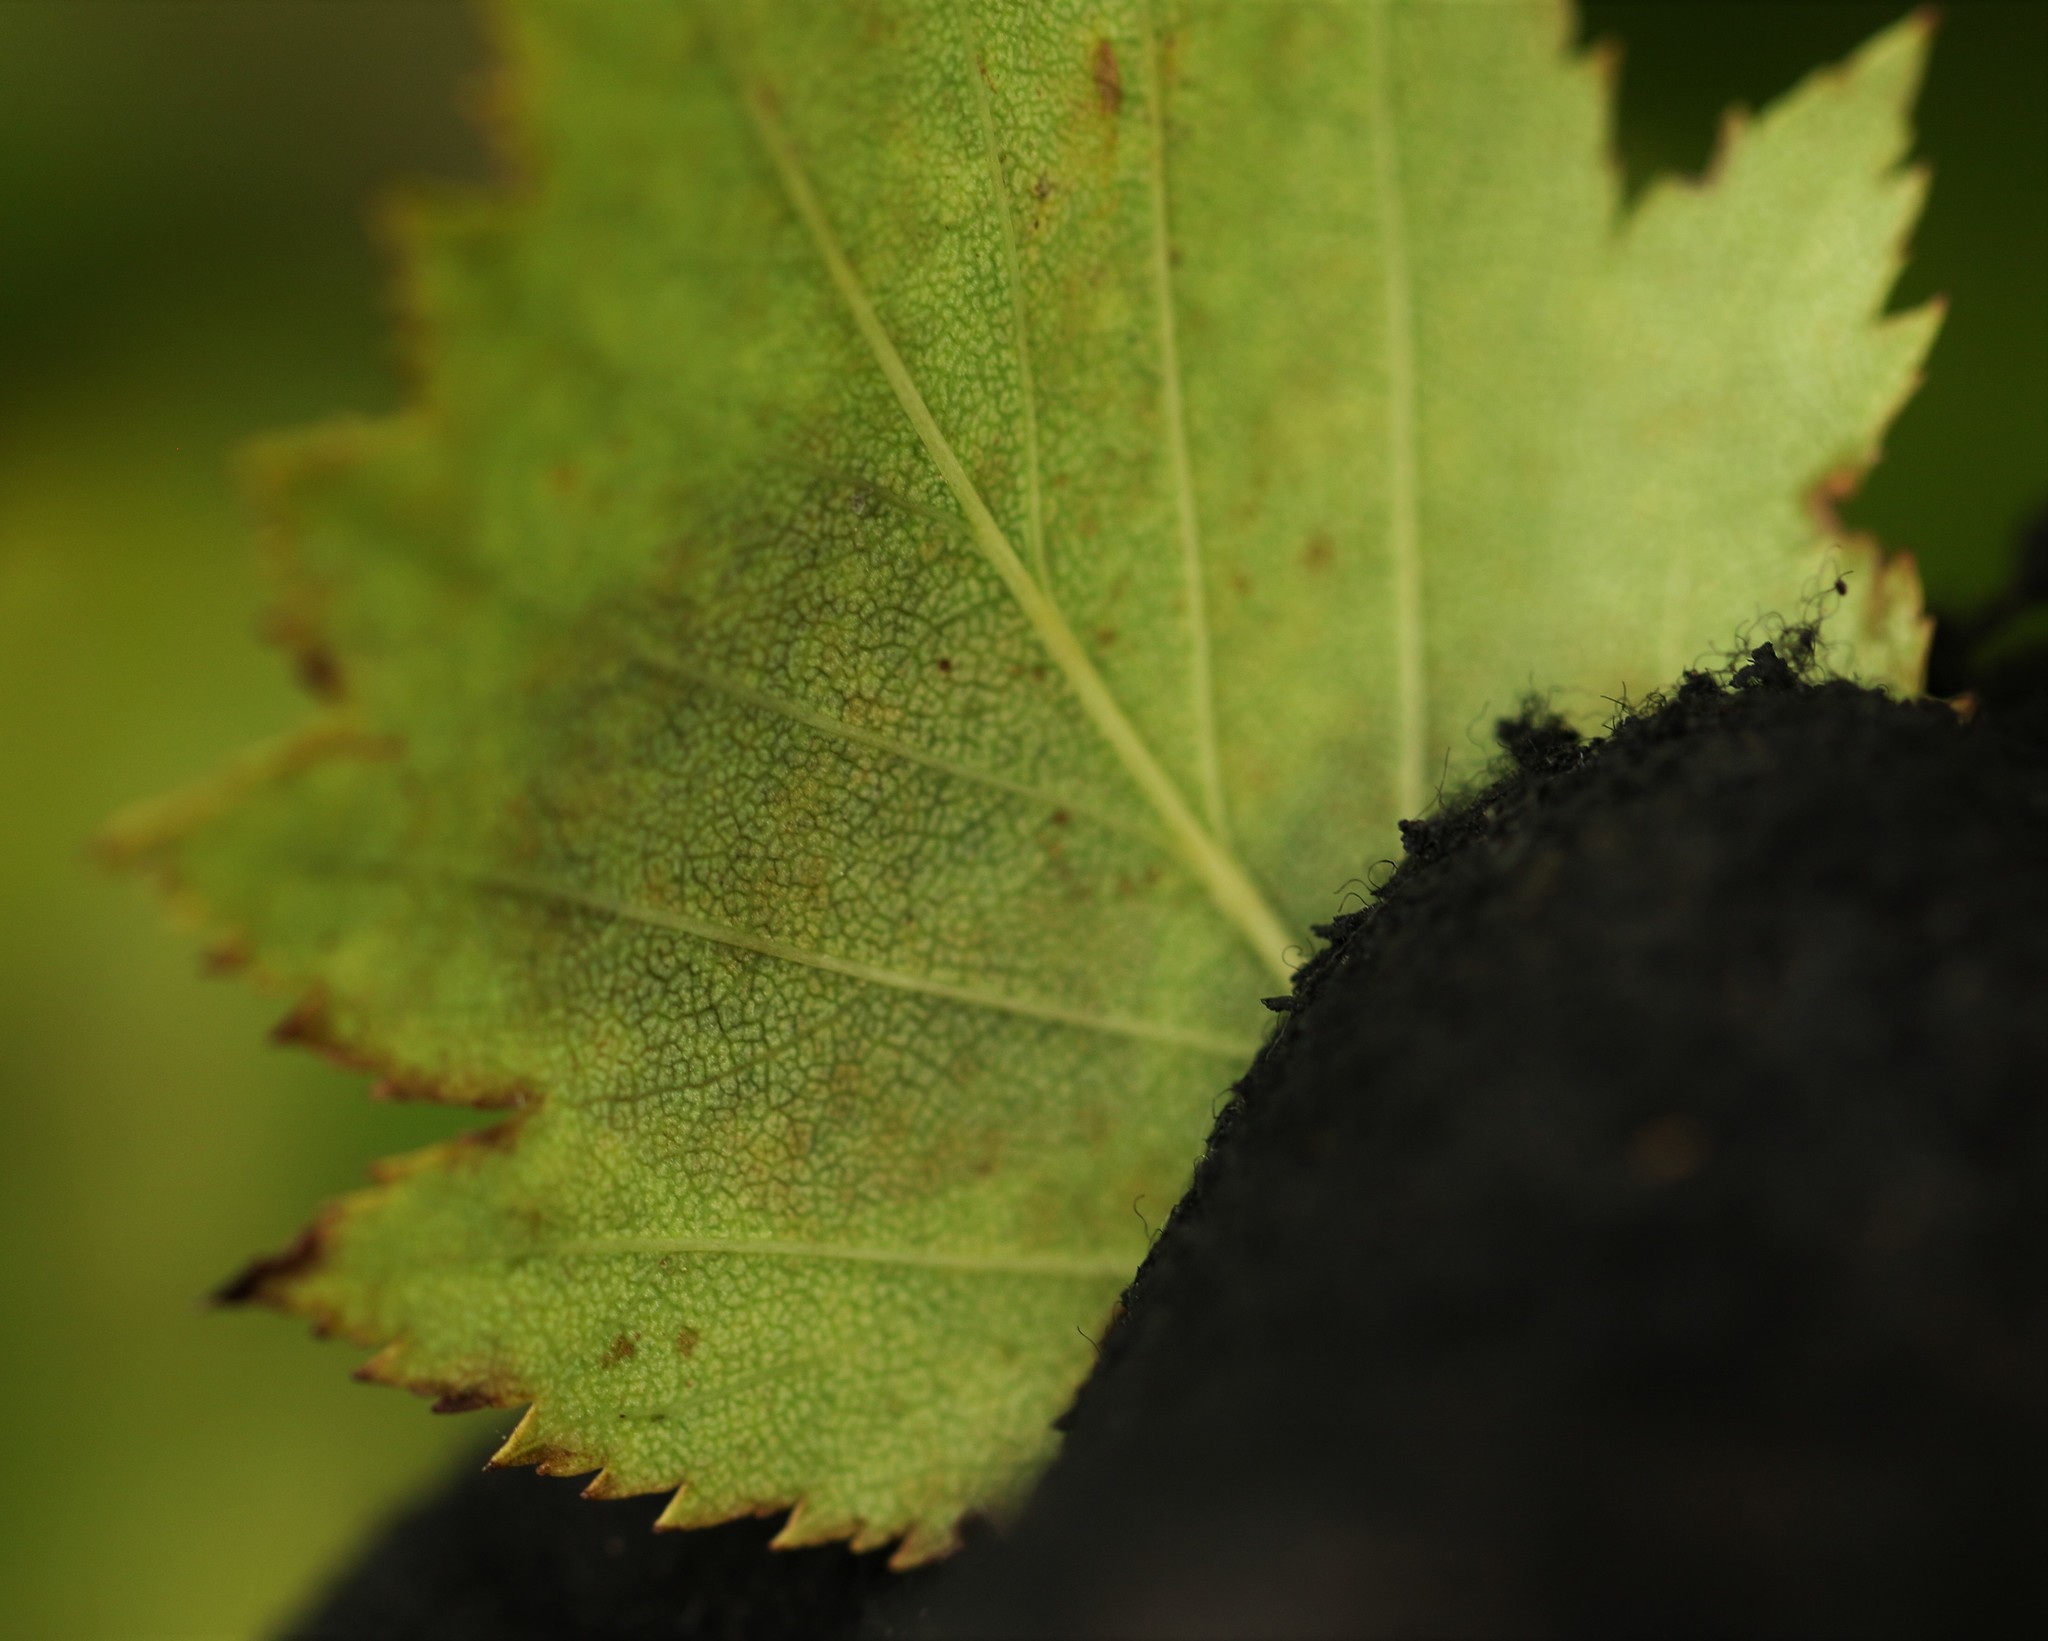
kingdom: Animalia
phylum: Arthropoda
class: Insecta
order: Lepidoptera
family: Gracillariidae
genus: Parornix
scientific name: Parornix inusitatumella
